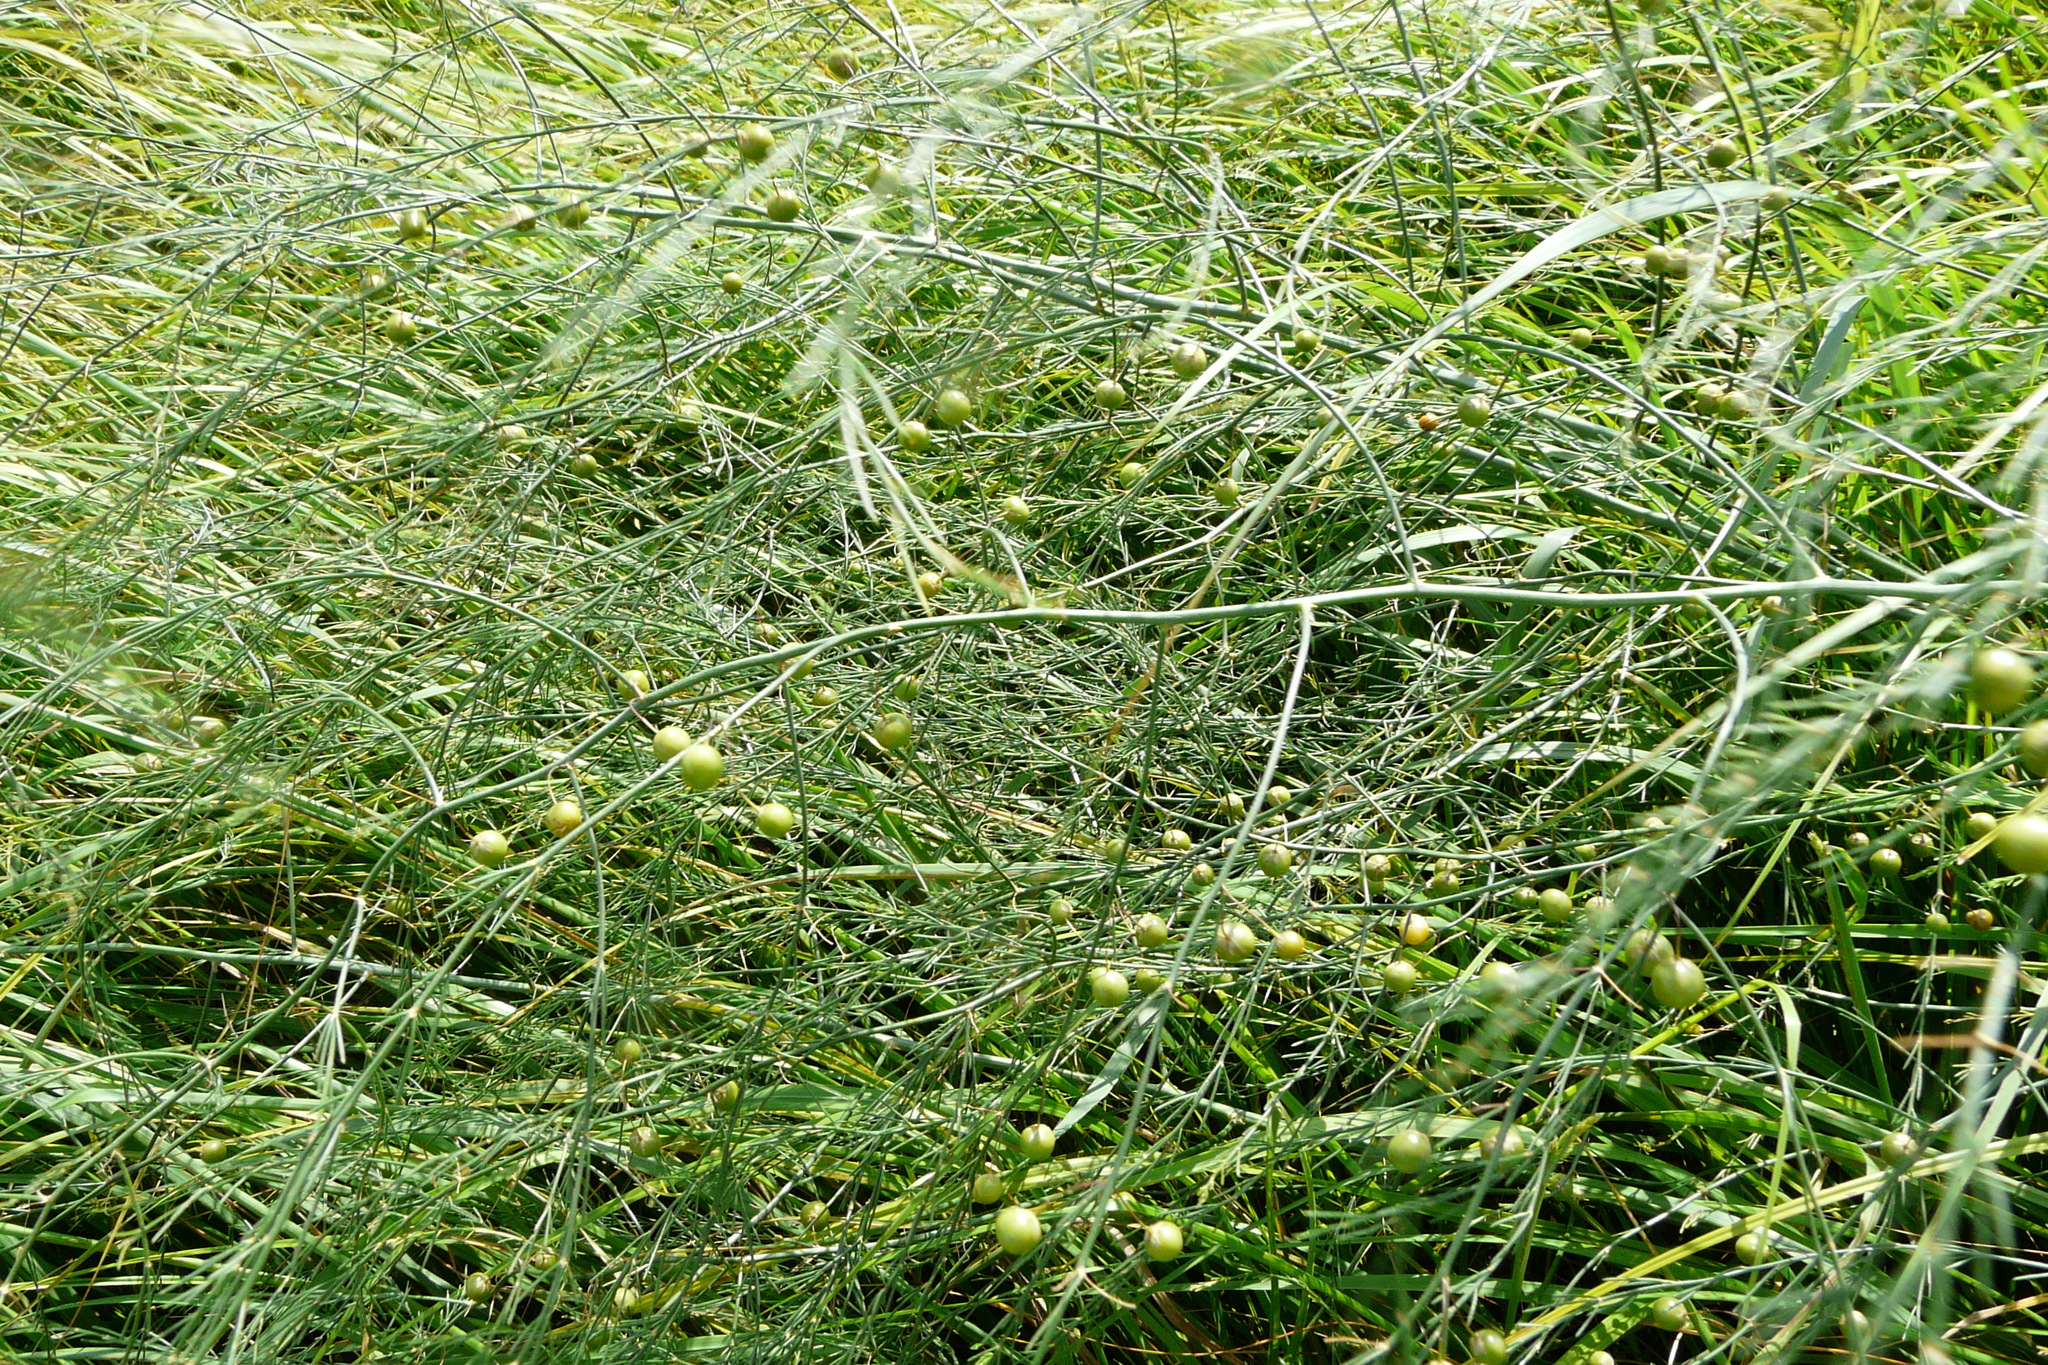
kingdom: Plantae
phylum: Tracheophyta
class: Liliopsida
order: Asparagales
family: Asparagaceae
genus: Asparagus
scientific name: Asparagus officinalis
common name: Garden asparagus
